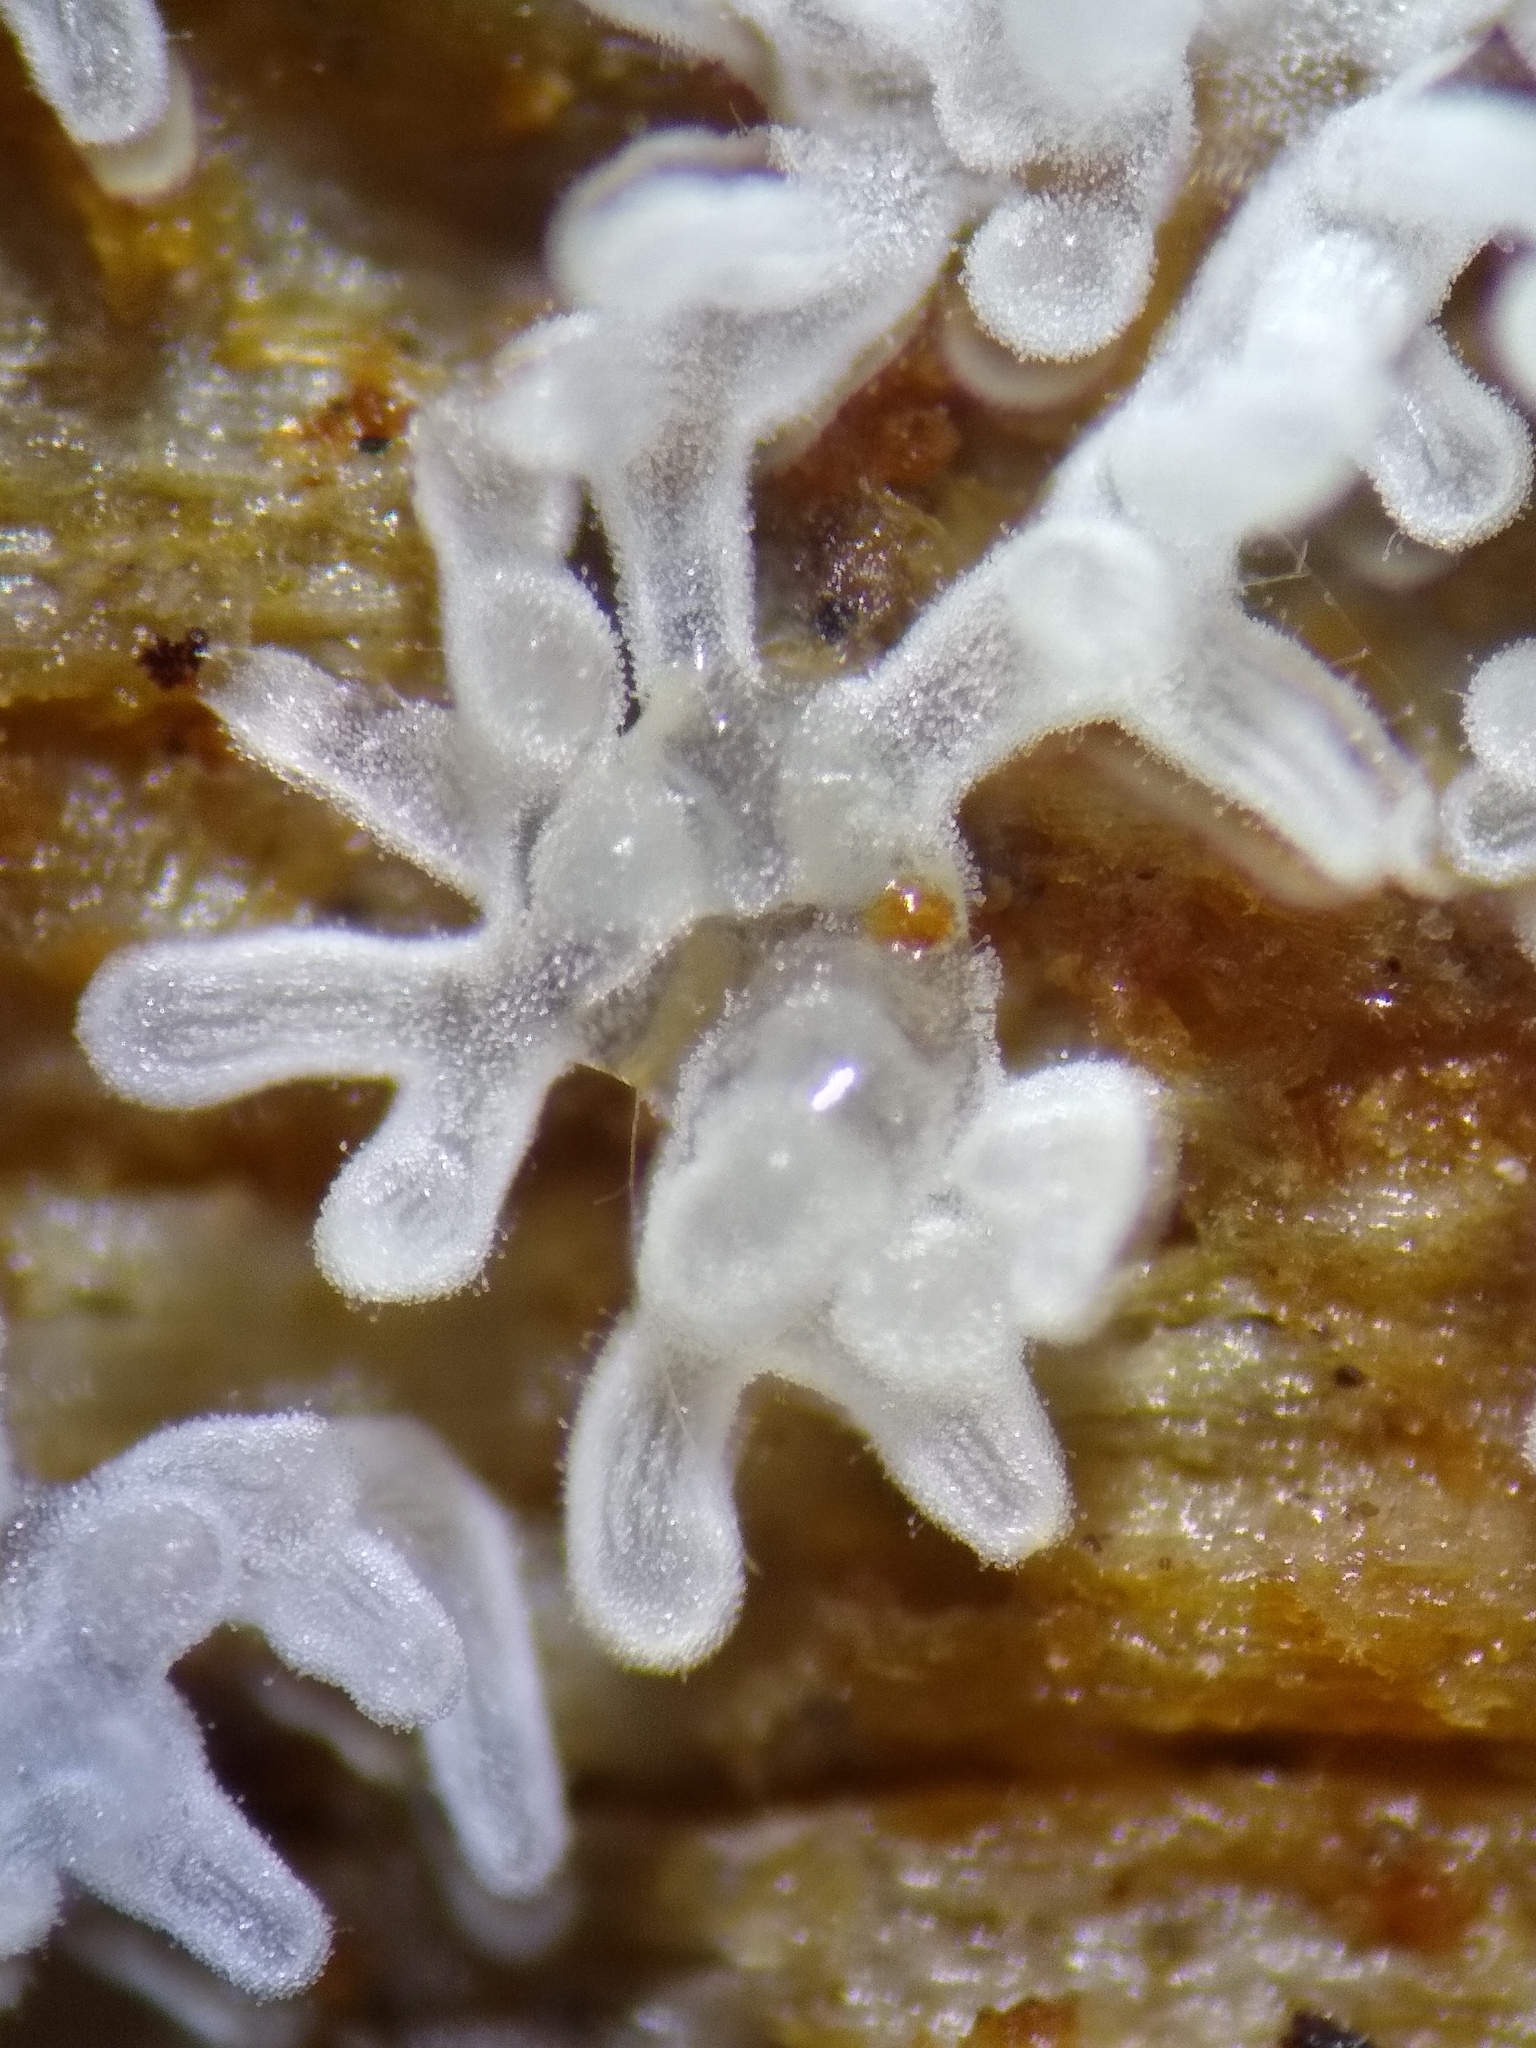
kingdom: Protozoa
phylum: Mycetozoa
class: Protosteliomycetes
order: Ceratiomyxales
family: Ceratiomyxaceae
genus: Ceratiomyxa
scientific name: Ceratiomyxa fruticulosa
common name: Honeycomb coral slime mold
